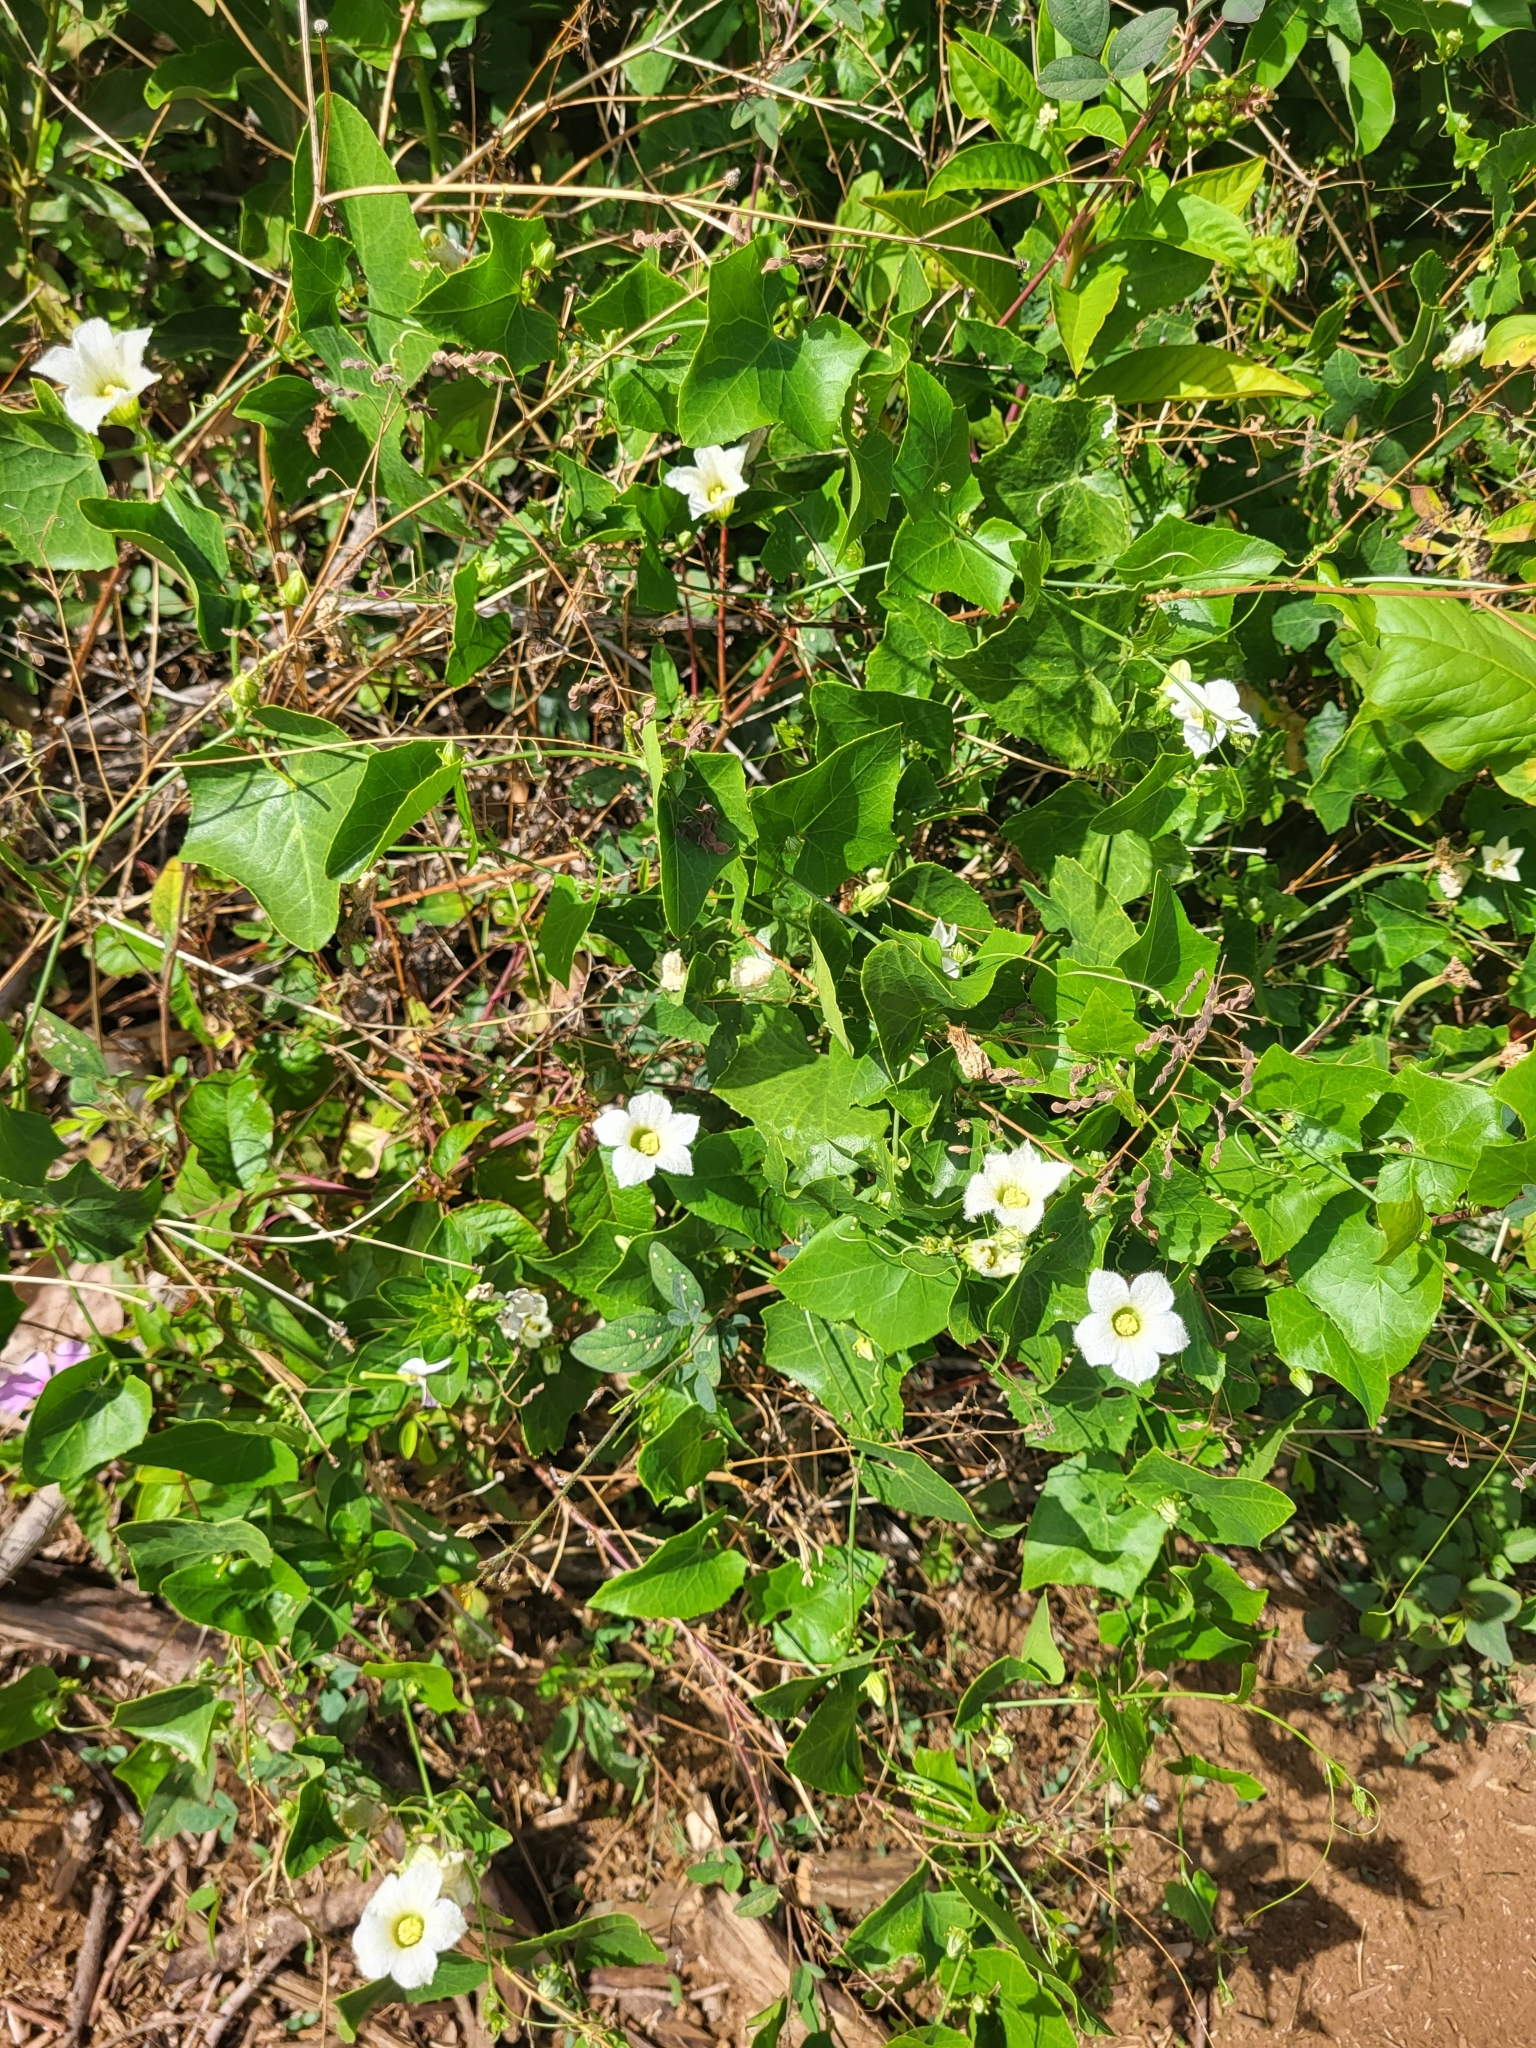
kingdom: Plantae
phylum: Tracheophyta
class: Magnoliopsida
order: Cucurbitales
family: Cucurbitaceae
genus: Coccinia
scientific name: Coccinia grandis
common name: Ivy gourd
